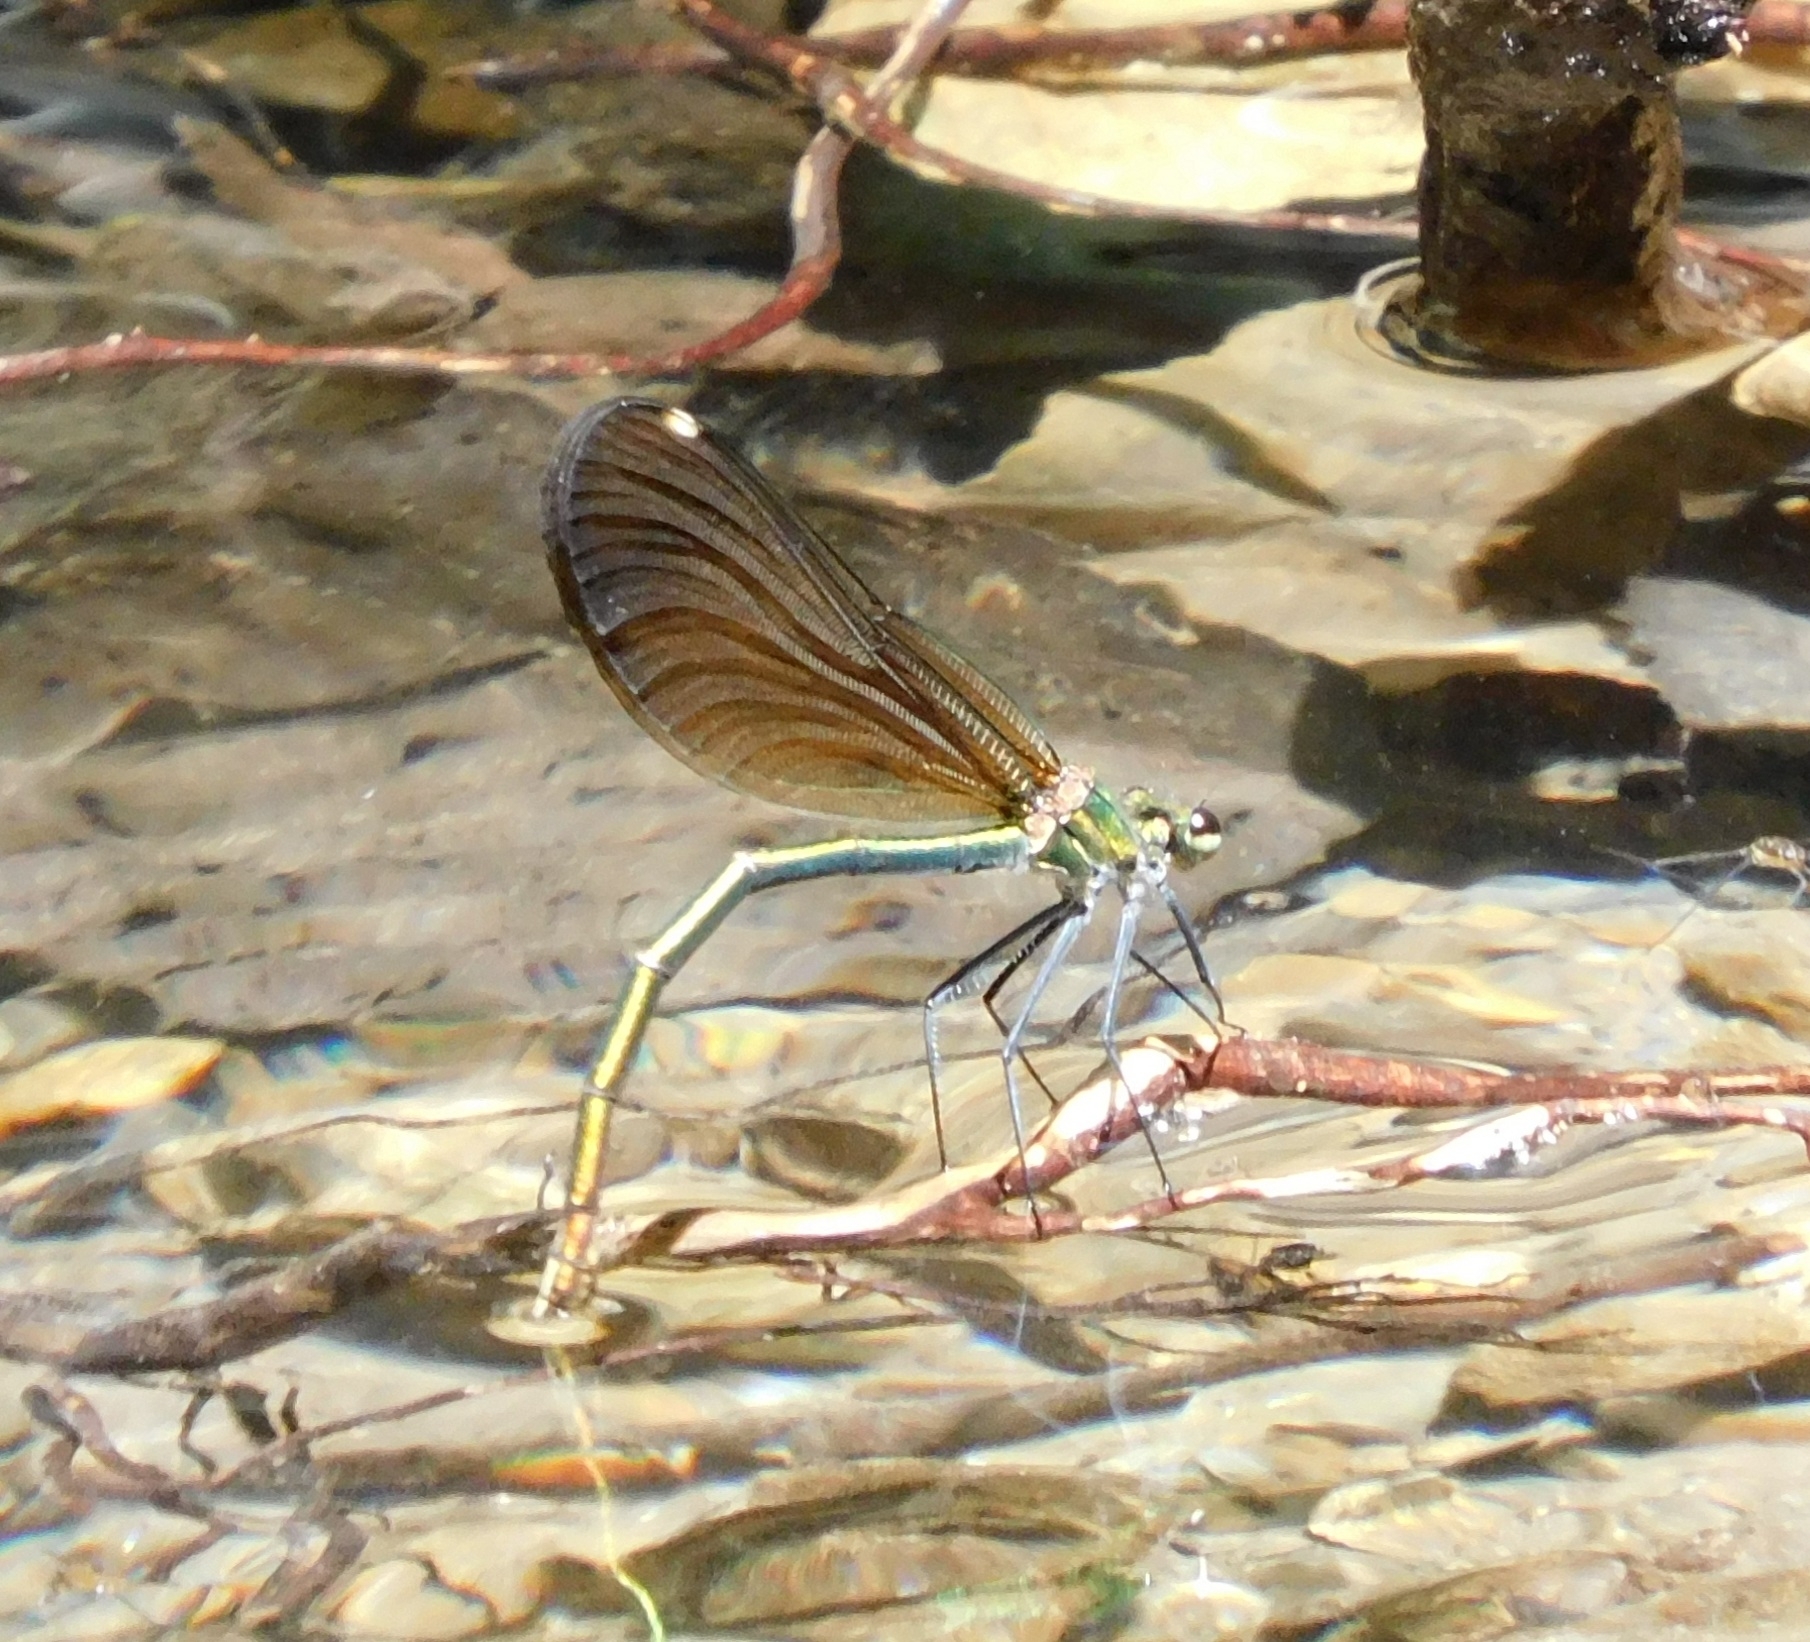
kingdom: Animalia
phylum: Arthropoda
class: Insecta
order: Odonata
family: Calopterygidae
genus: Calopteryx
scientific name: Calopteryx virgo
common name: Beautiful demoiselle
